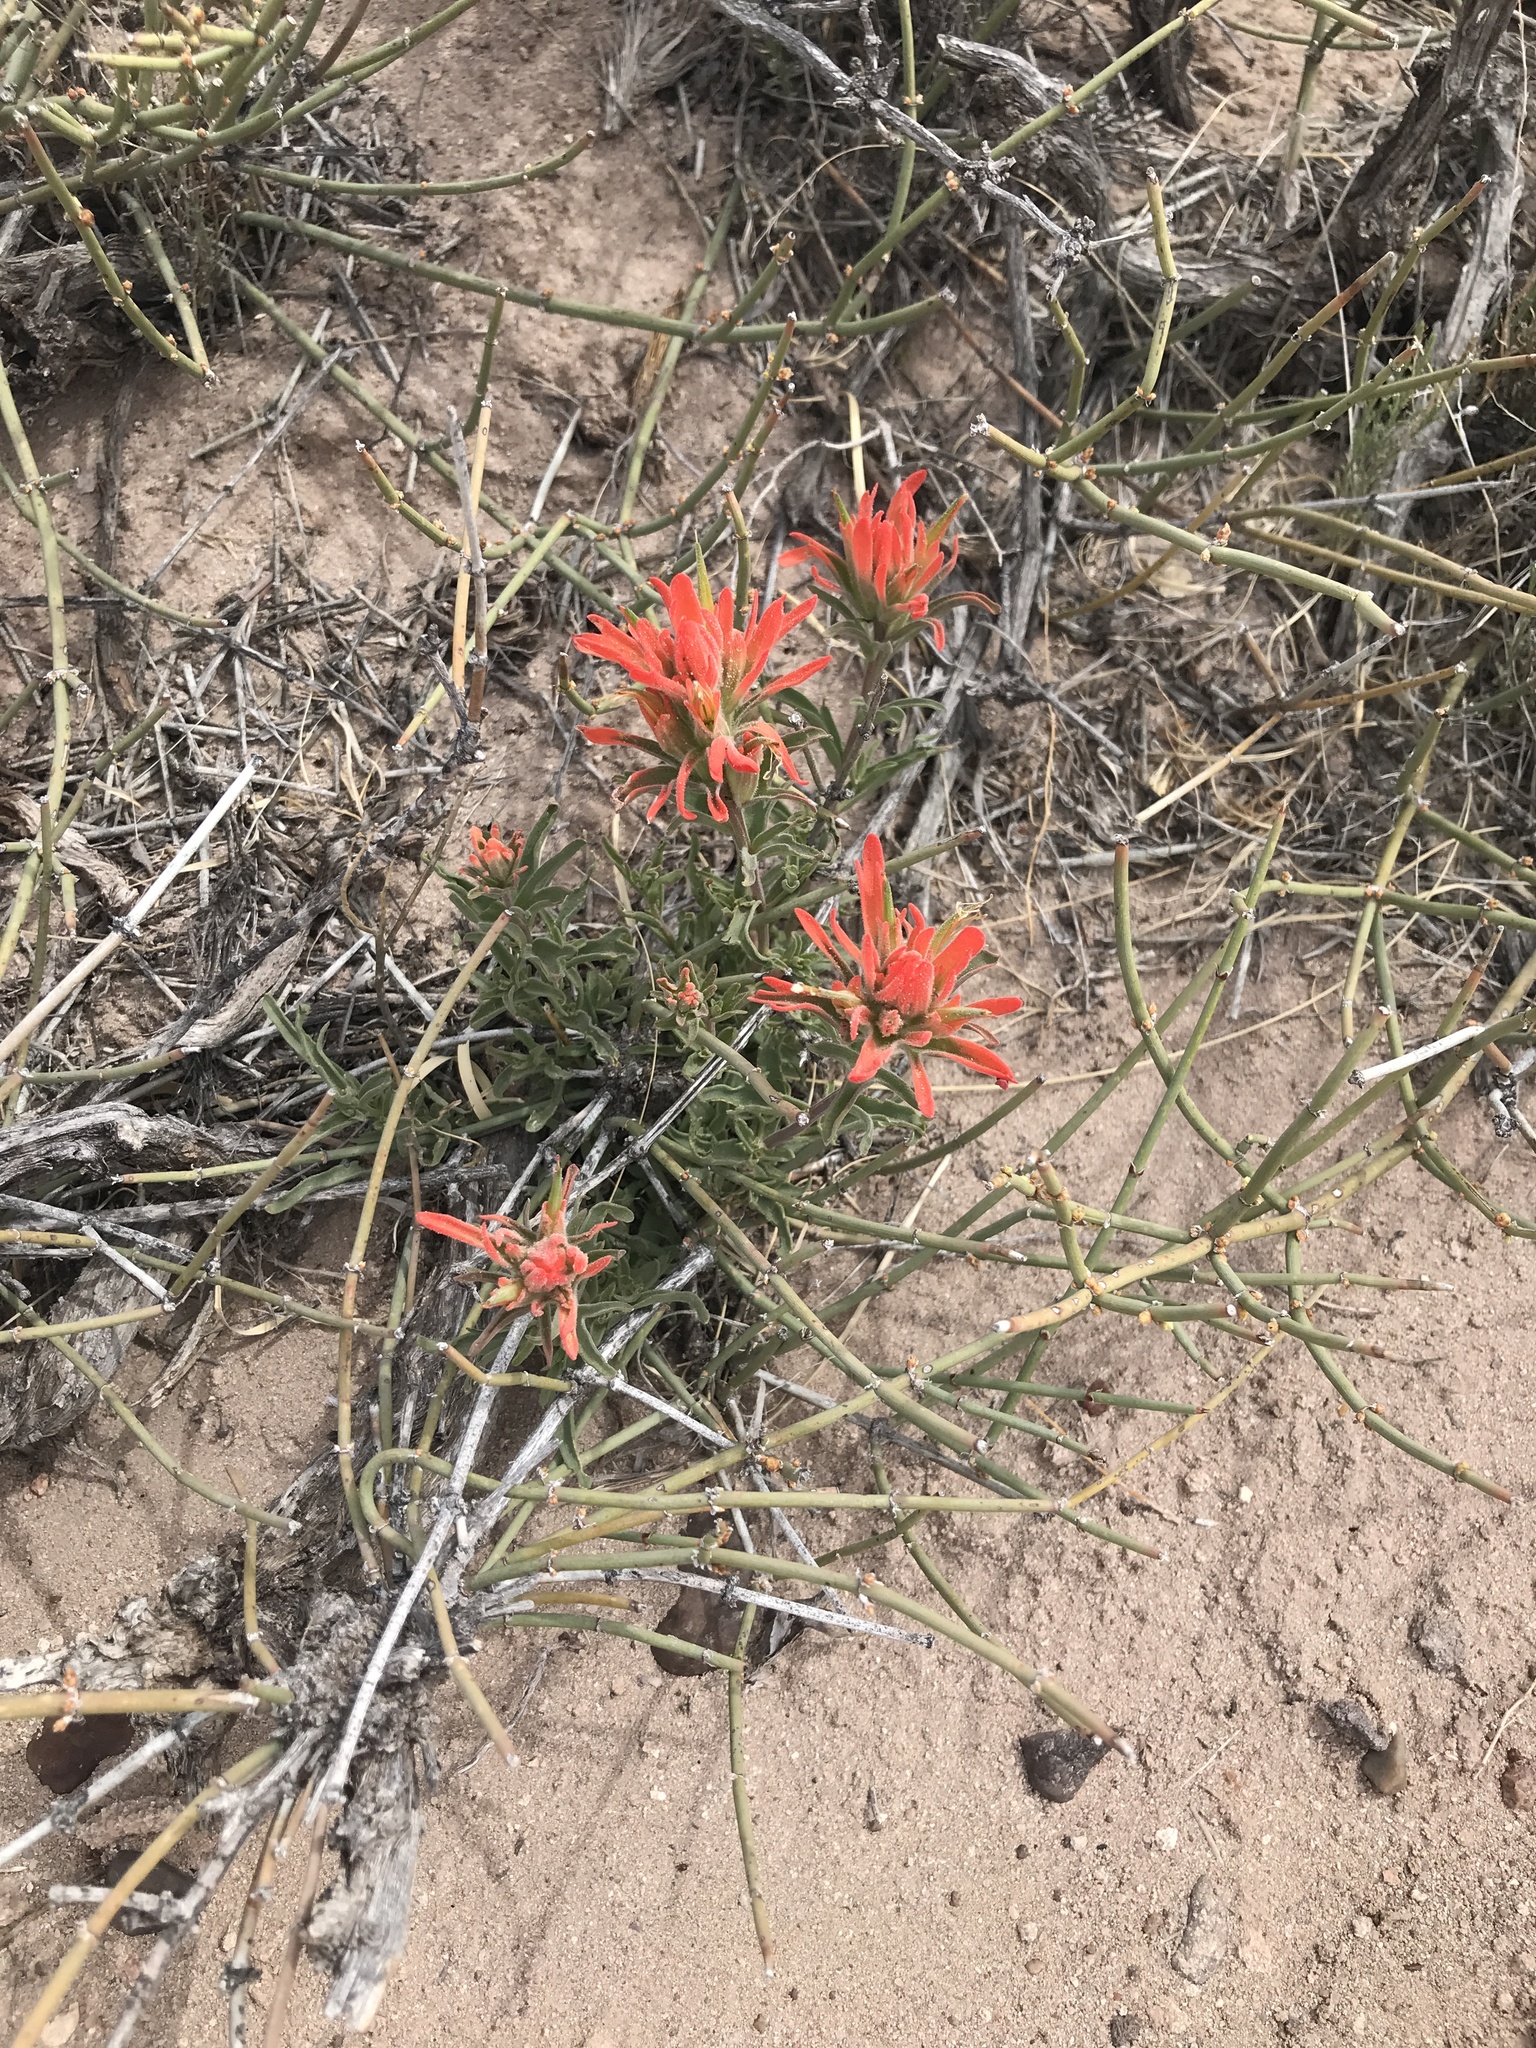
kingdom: Plantae
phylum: Tracheophyta
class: Magnoliopsida
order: Lamiales
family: Orobanchaceae
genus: Castilleja
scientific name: Castilleja chromosa
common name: Desert paintbrush
